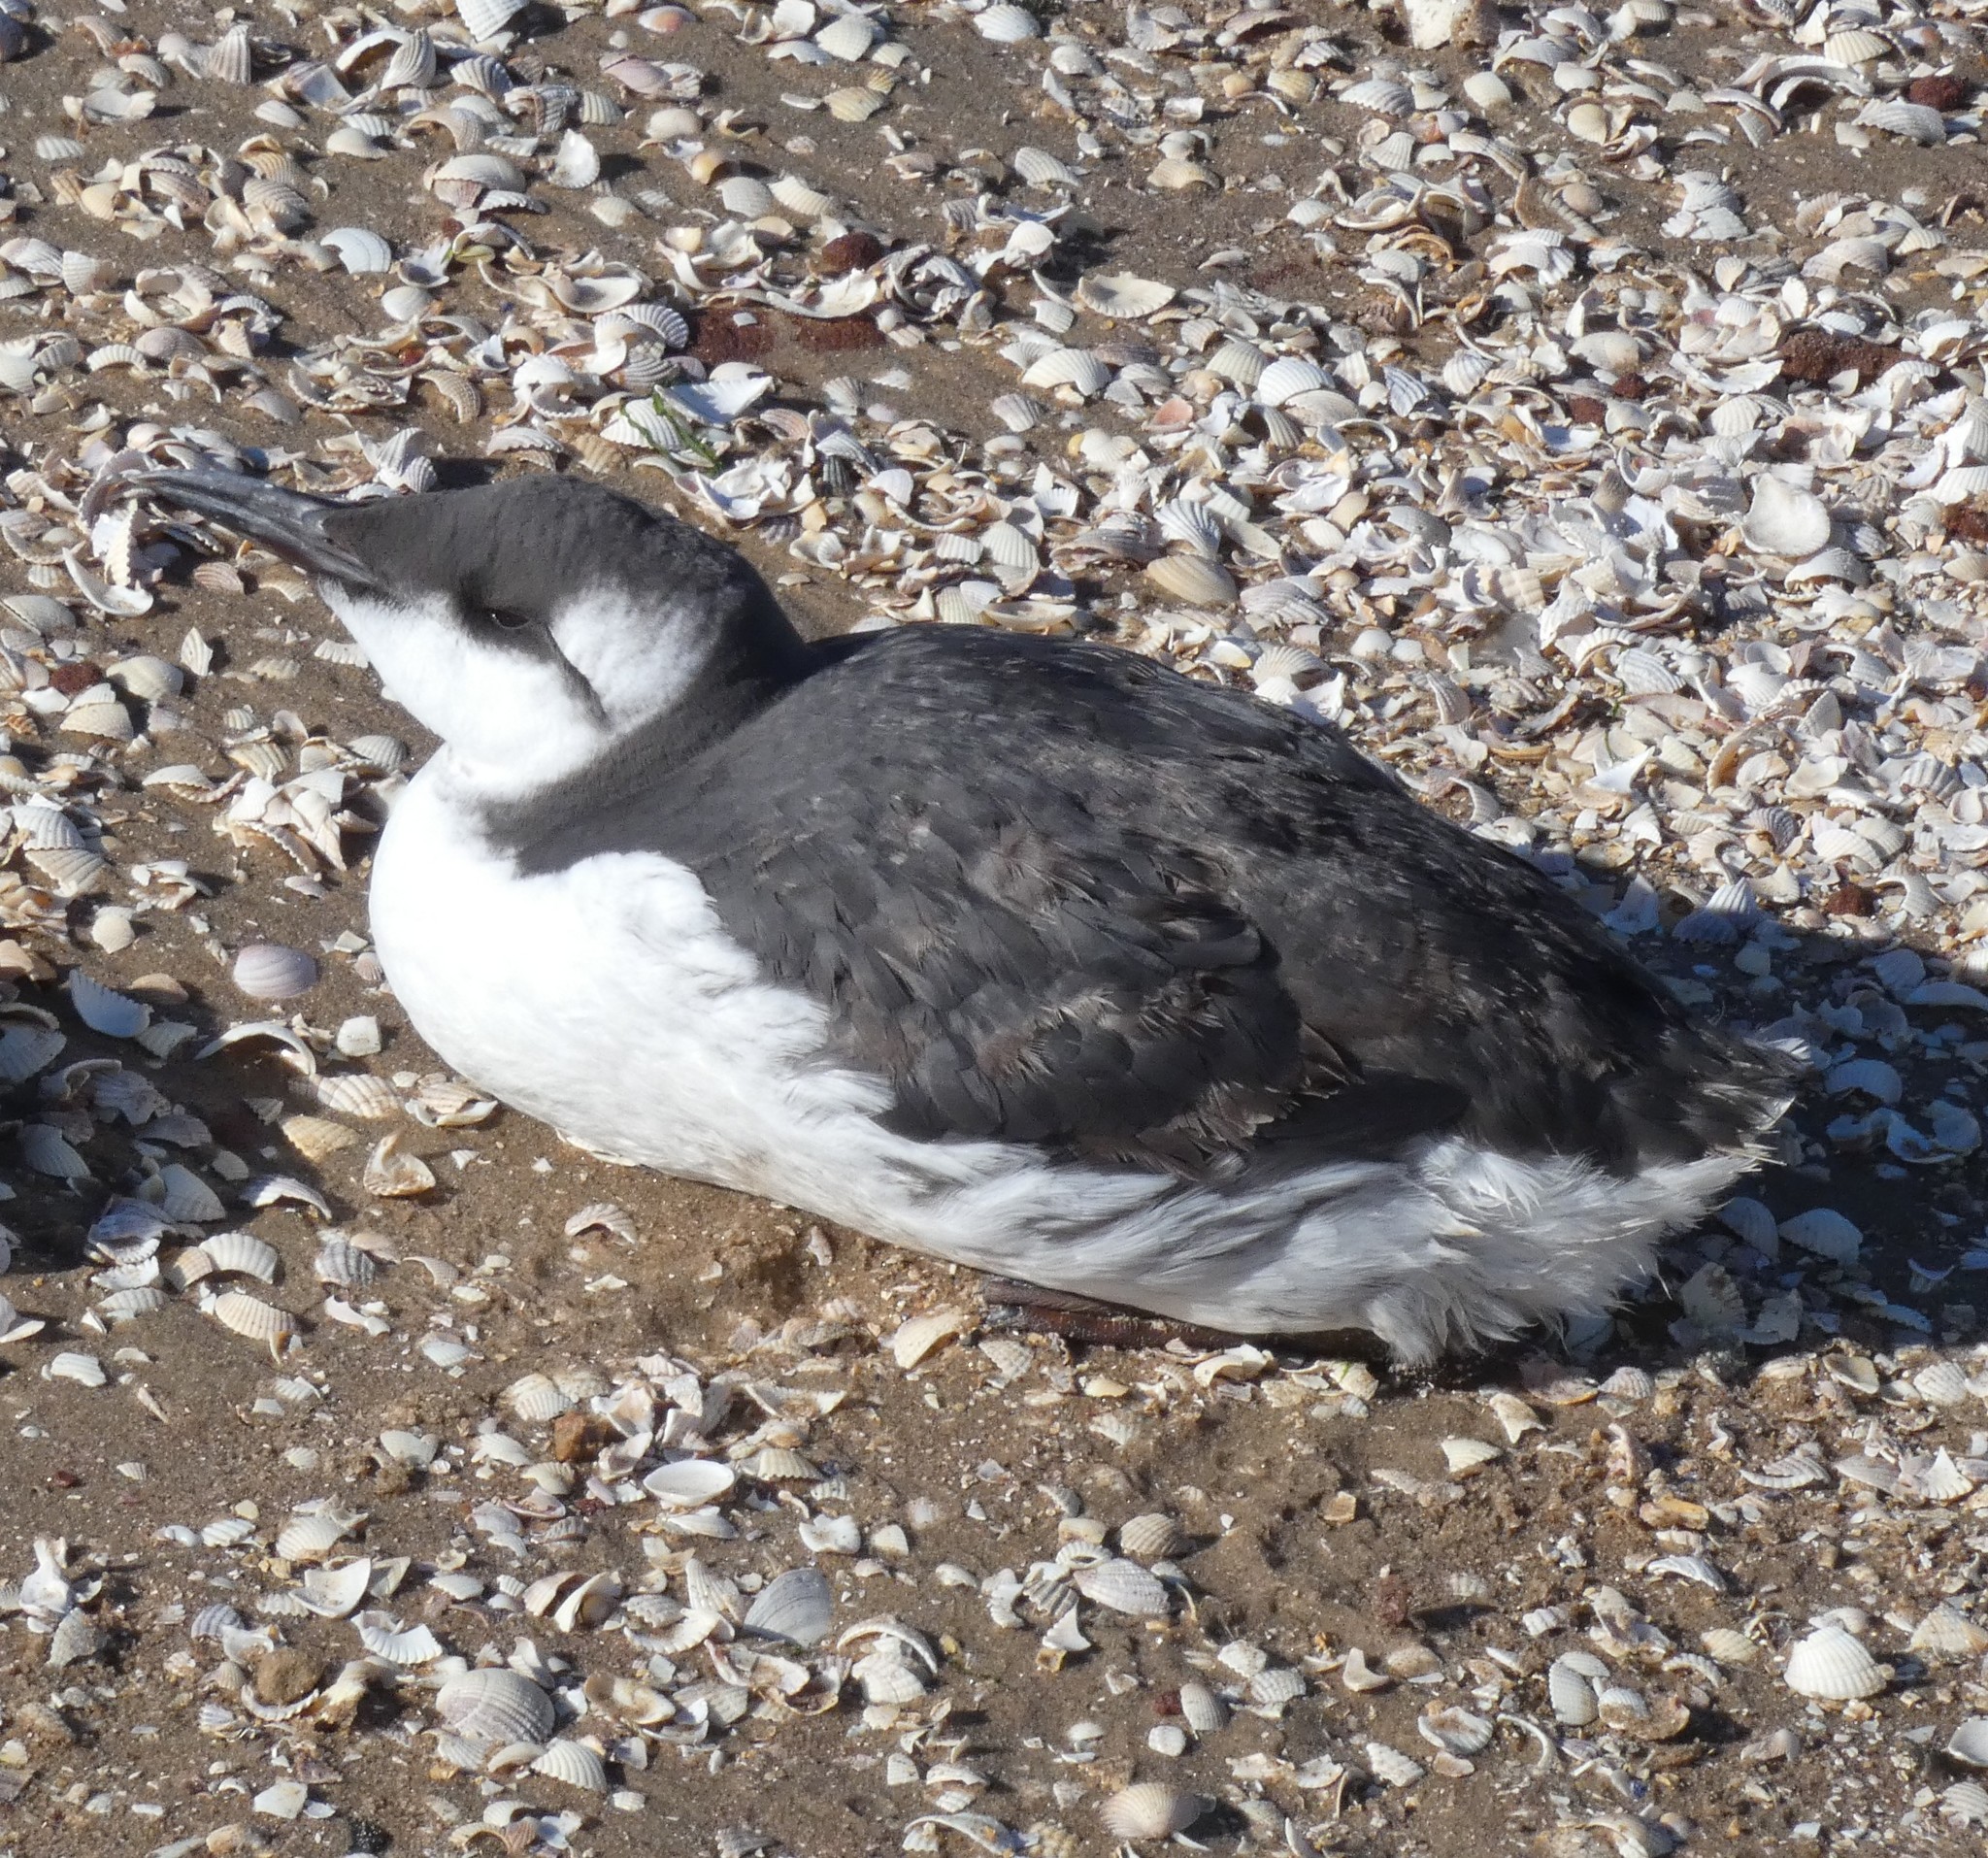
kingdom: Animalia
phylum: Chordata
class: Aves
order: Charadriiformes
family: Alcidae
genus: Uria
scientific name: Uria aalge
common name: Common murre
